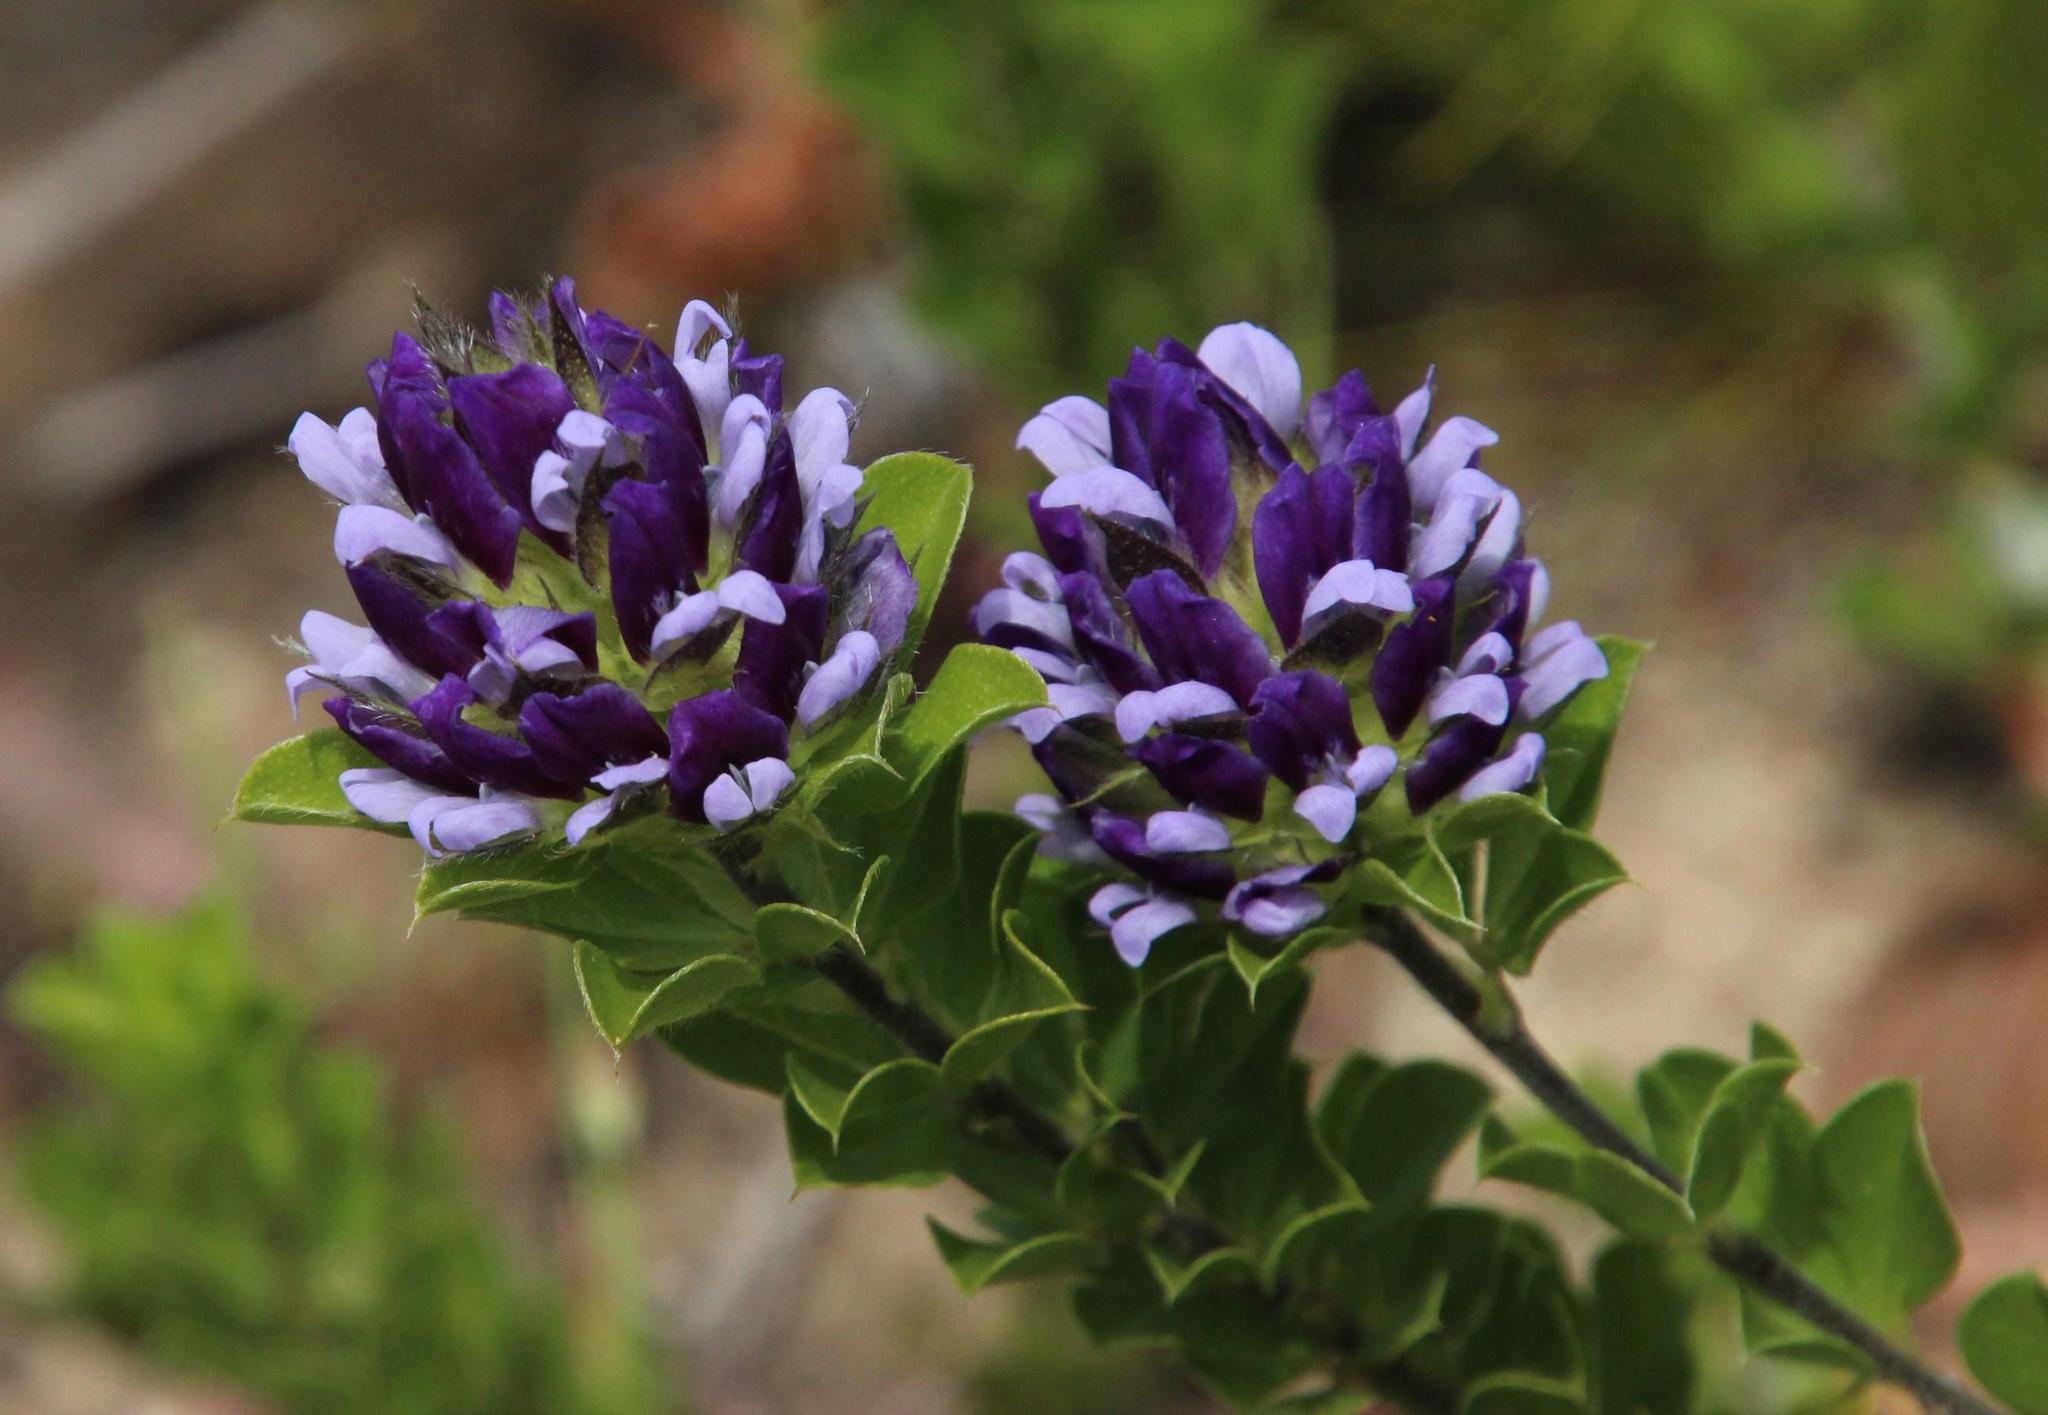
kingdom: Plantae
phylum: Tracheophyta
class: Magnoliopsida
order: Fabales
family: Fabaceae
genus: Psoralea
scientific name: Psoralea fruticans
